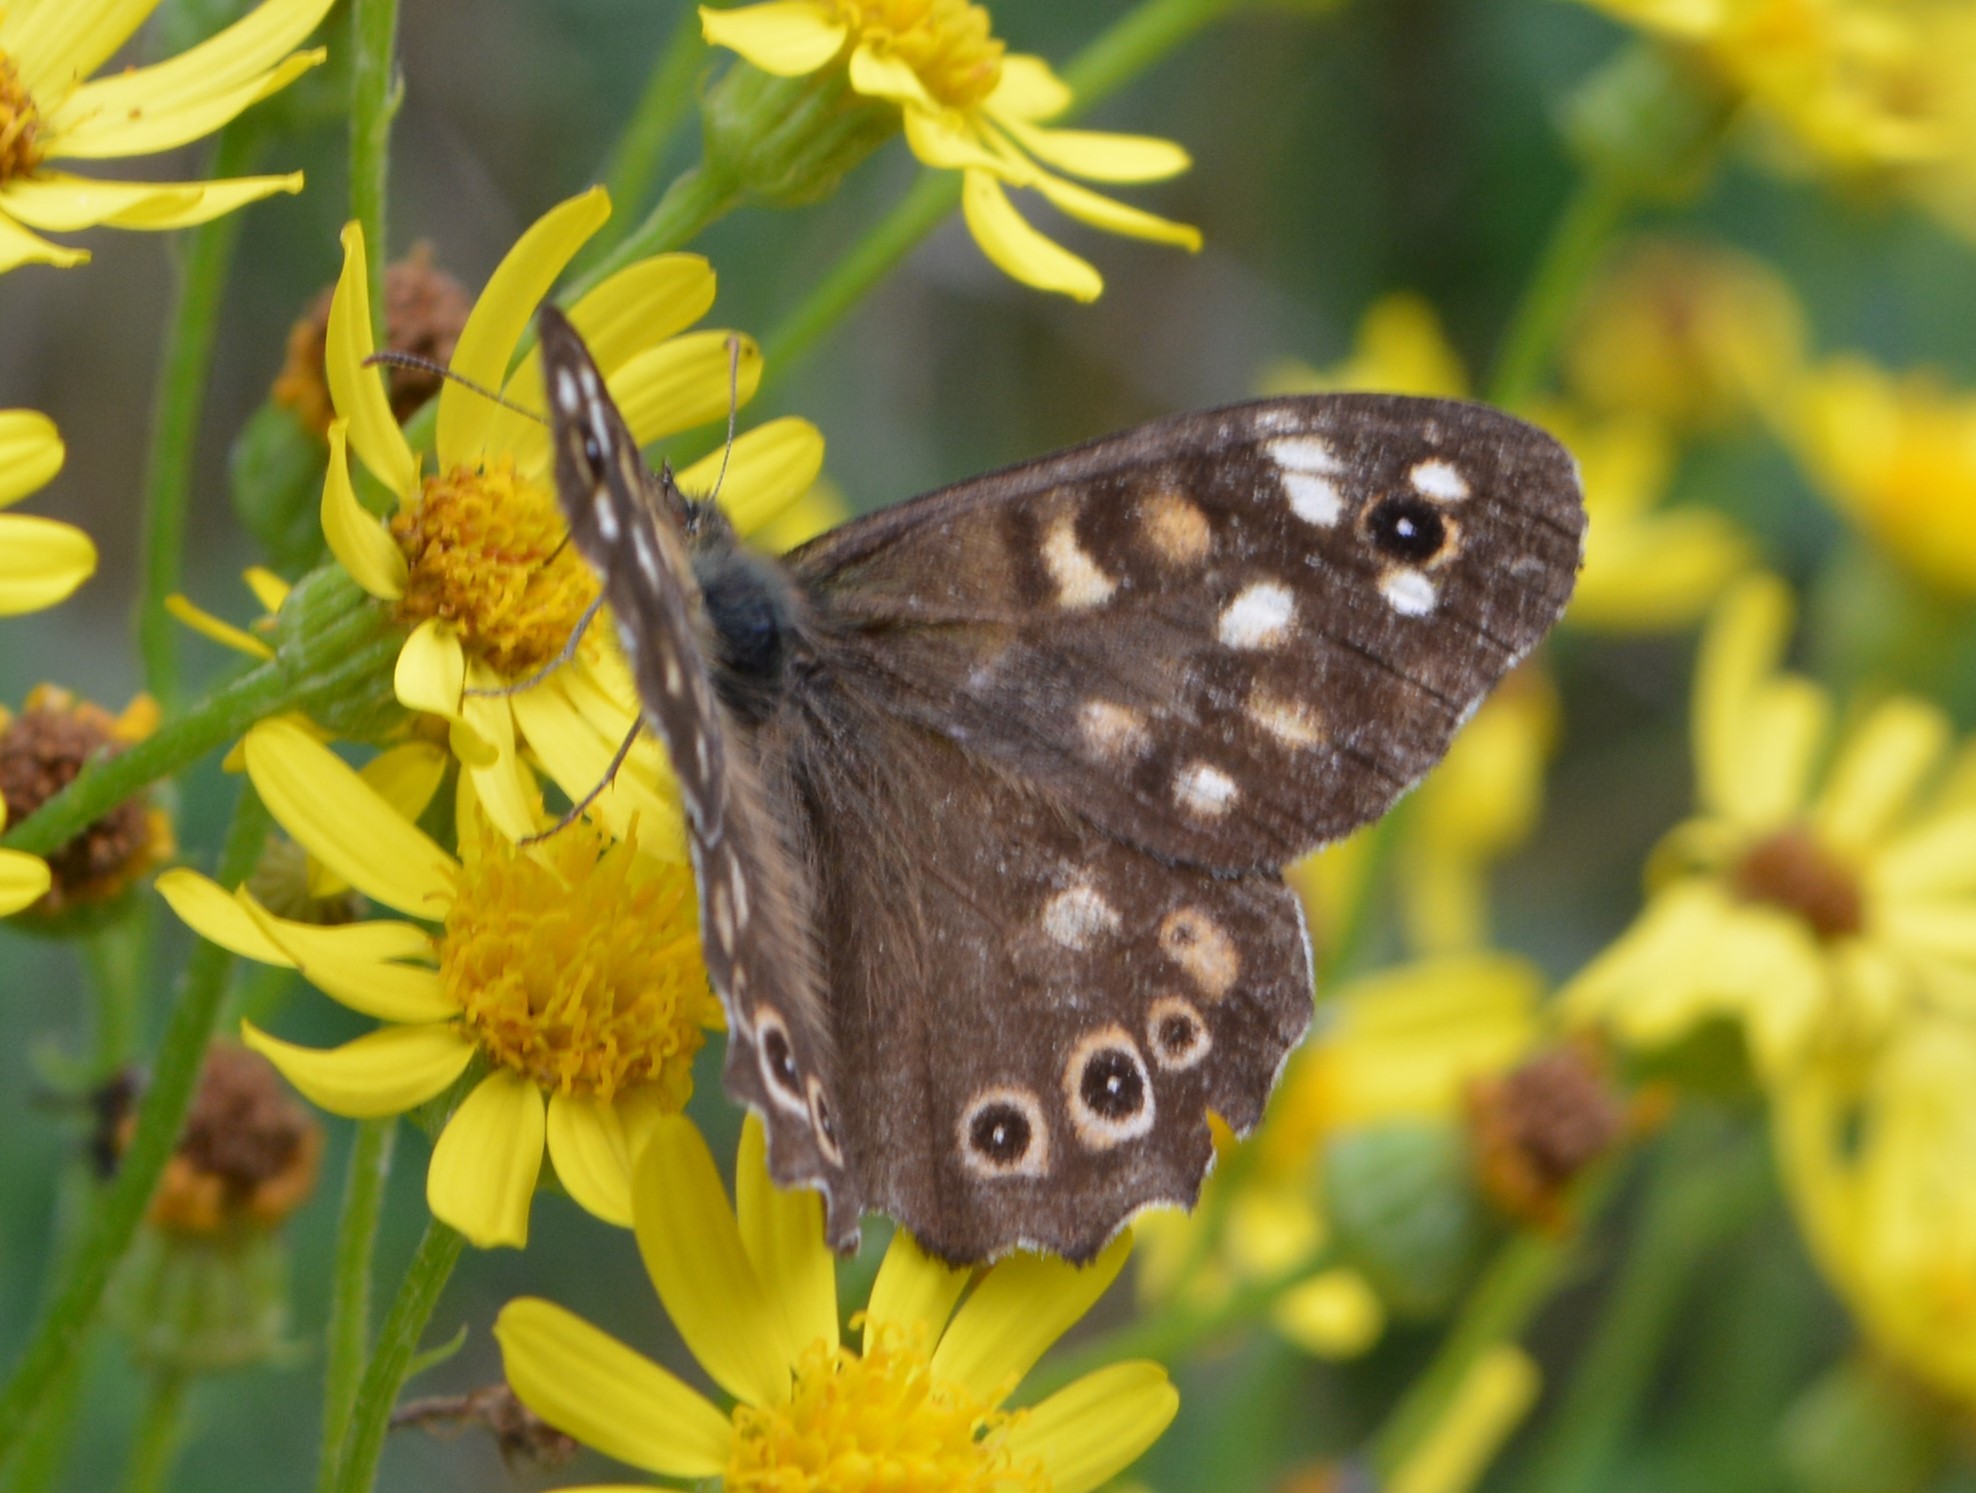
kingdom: Animalia
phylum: Arthropoda
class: Insecta
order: Lepidoptera
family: Nymphalidae
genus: Pararge
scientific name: Pararge aegeria
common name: Speckled wood
